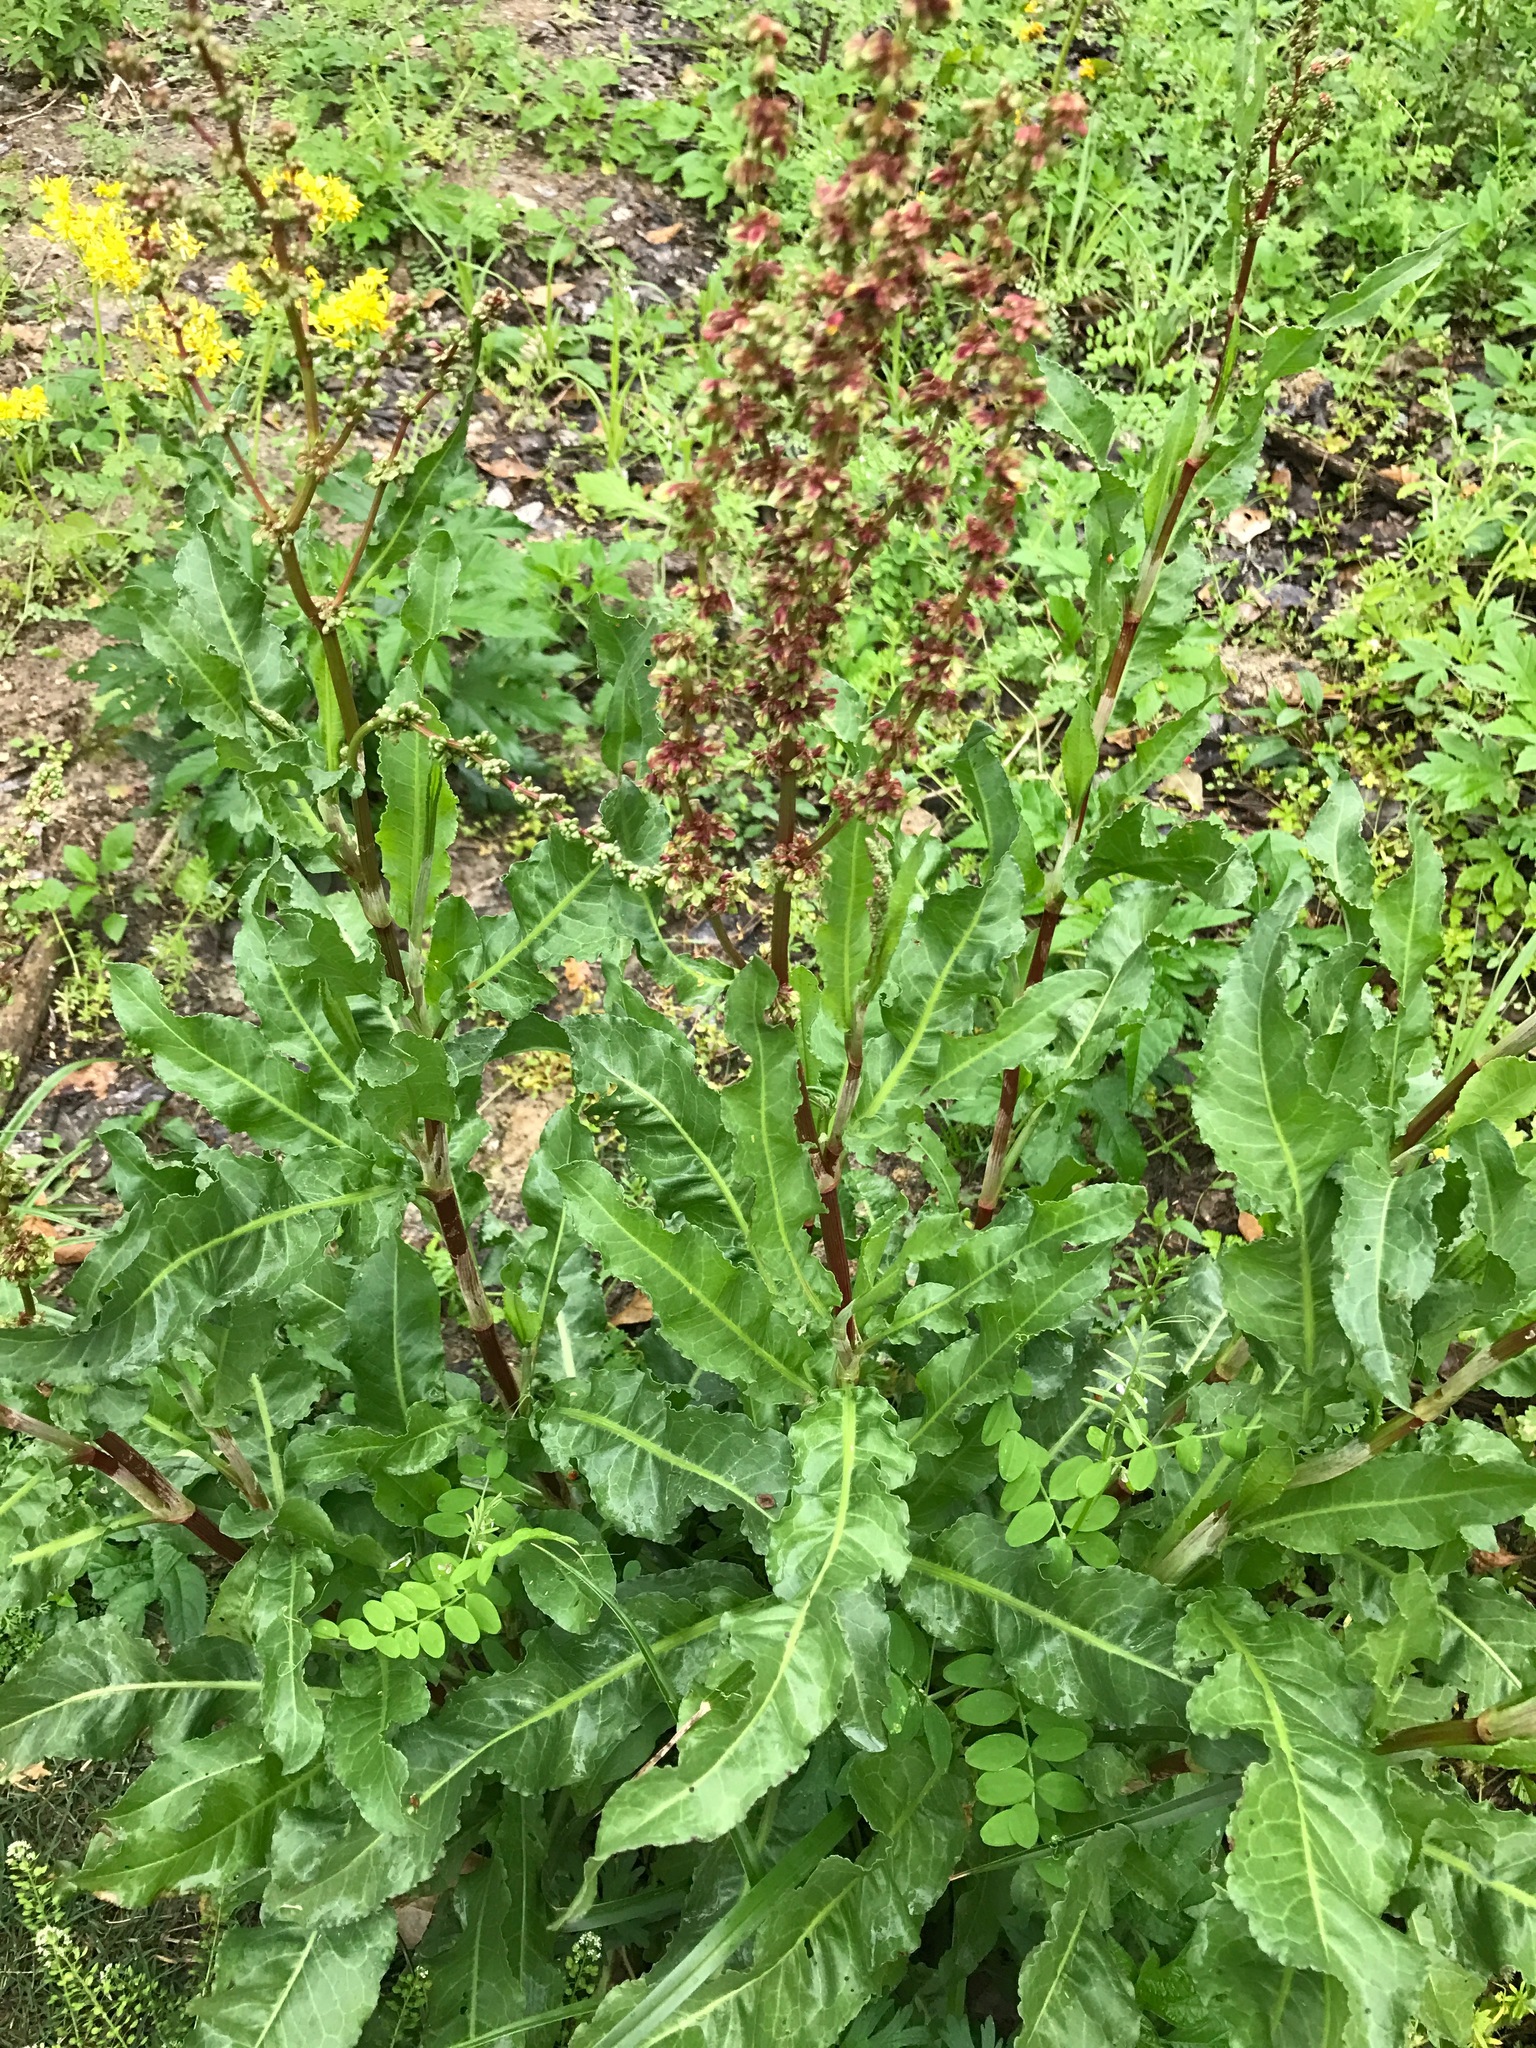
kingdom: Plantae
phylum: Tracheophyta
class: Magnoliopsida
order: Caryophyllales
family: Polygonaceae
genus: Rumex
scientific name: Rumex crispus
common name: Curled dock
